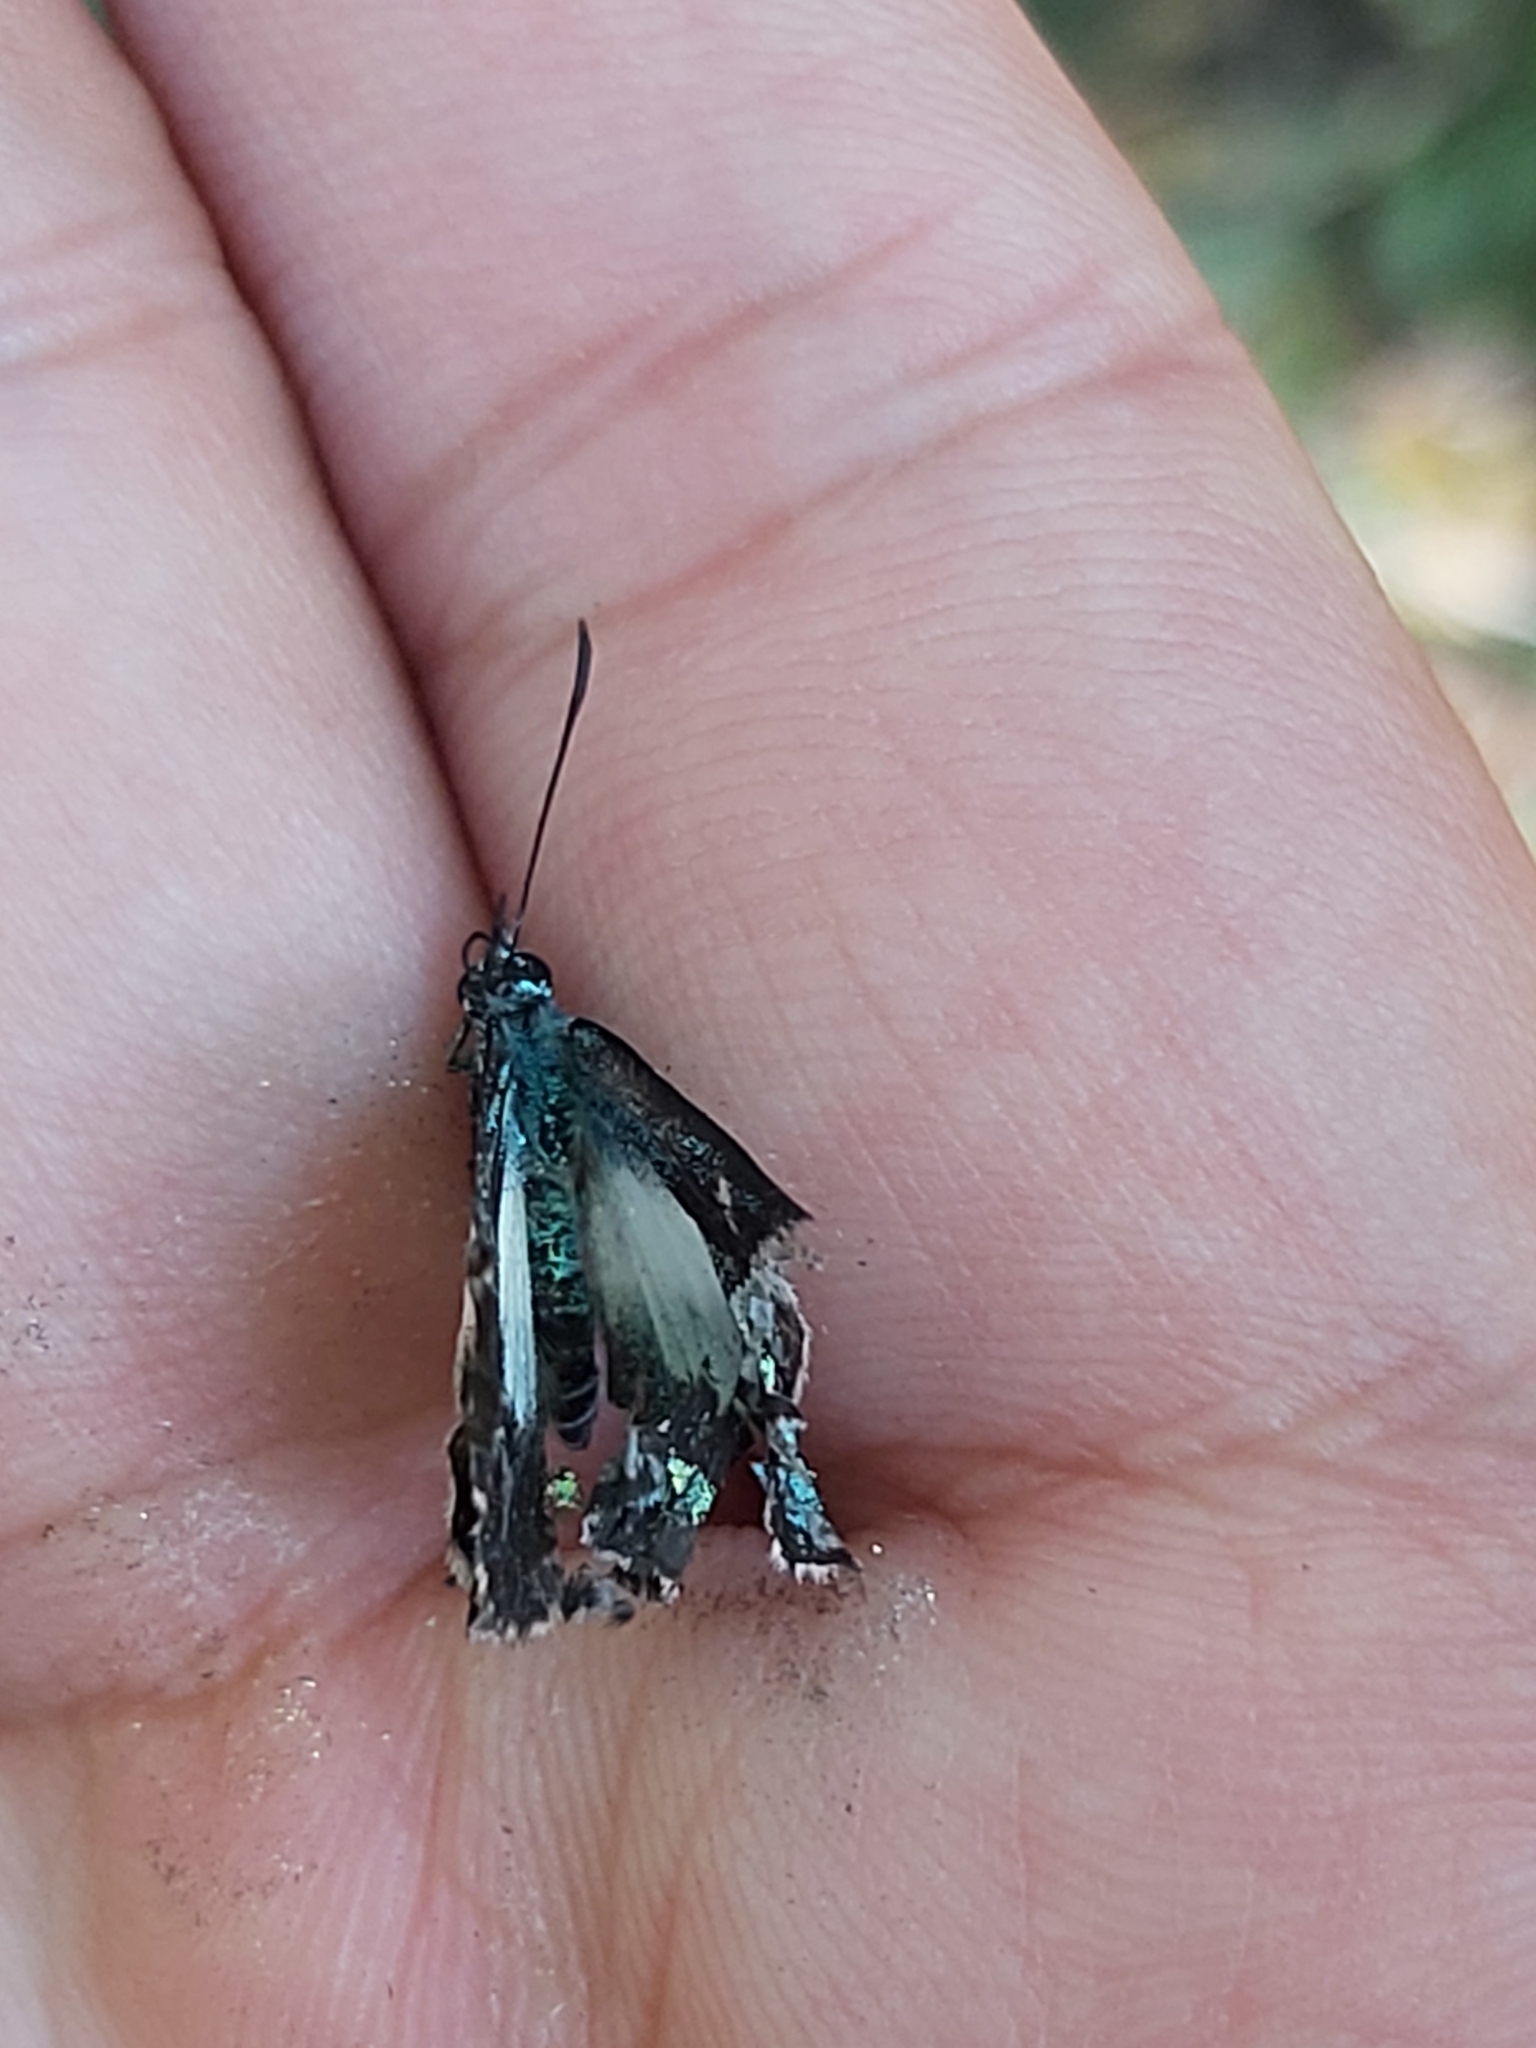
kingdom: Animalia
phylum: Arthropoda
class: Insecta
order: Lepidoptera
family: Lycaenidae
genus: Danis
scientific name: Danis danis
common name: Large green-banded blue
